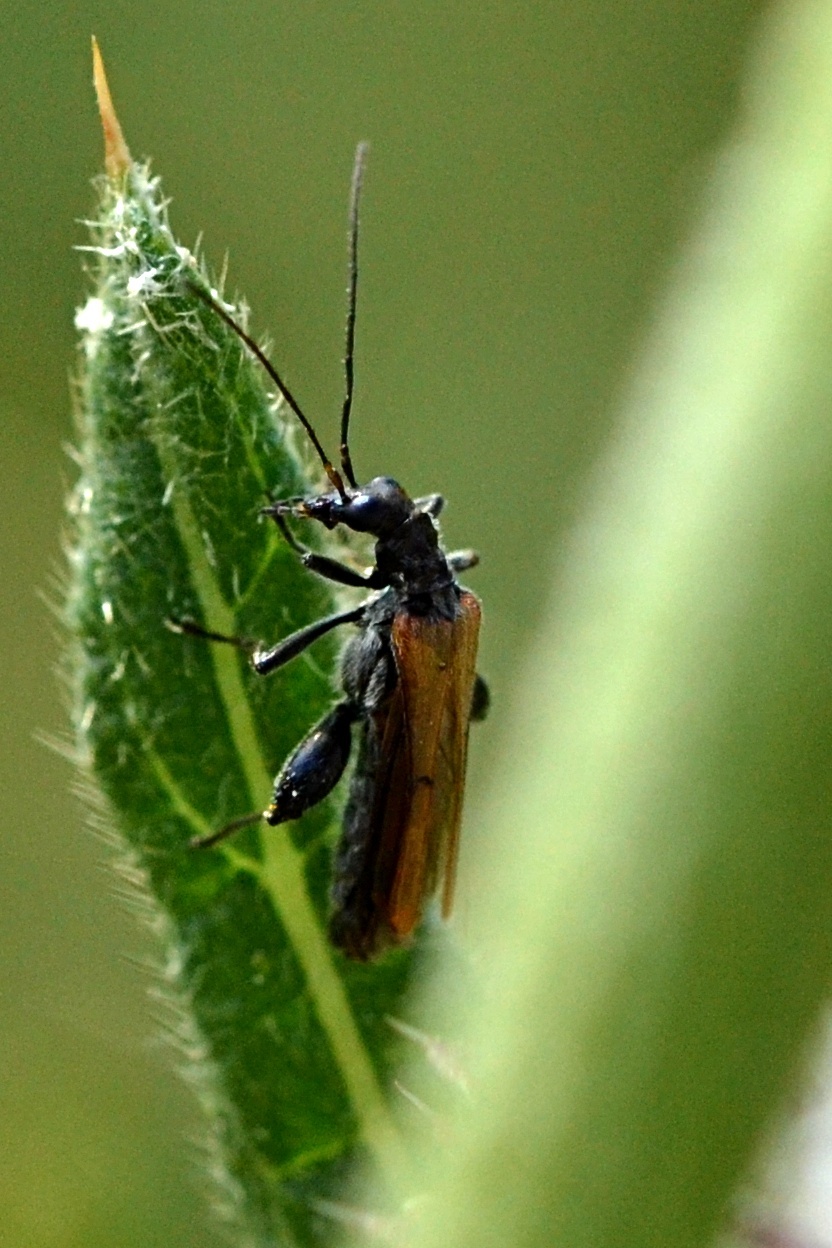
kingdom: Animalia
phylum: Arthropoda
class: Insecta
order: Coleoptera
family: Oedemeridae
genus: Oedemera
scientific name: Oedemera femorata
